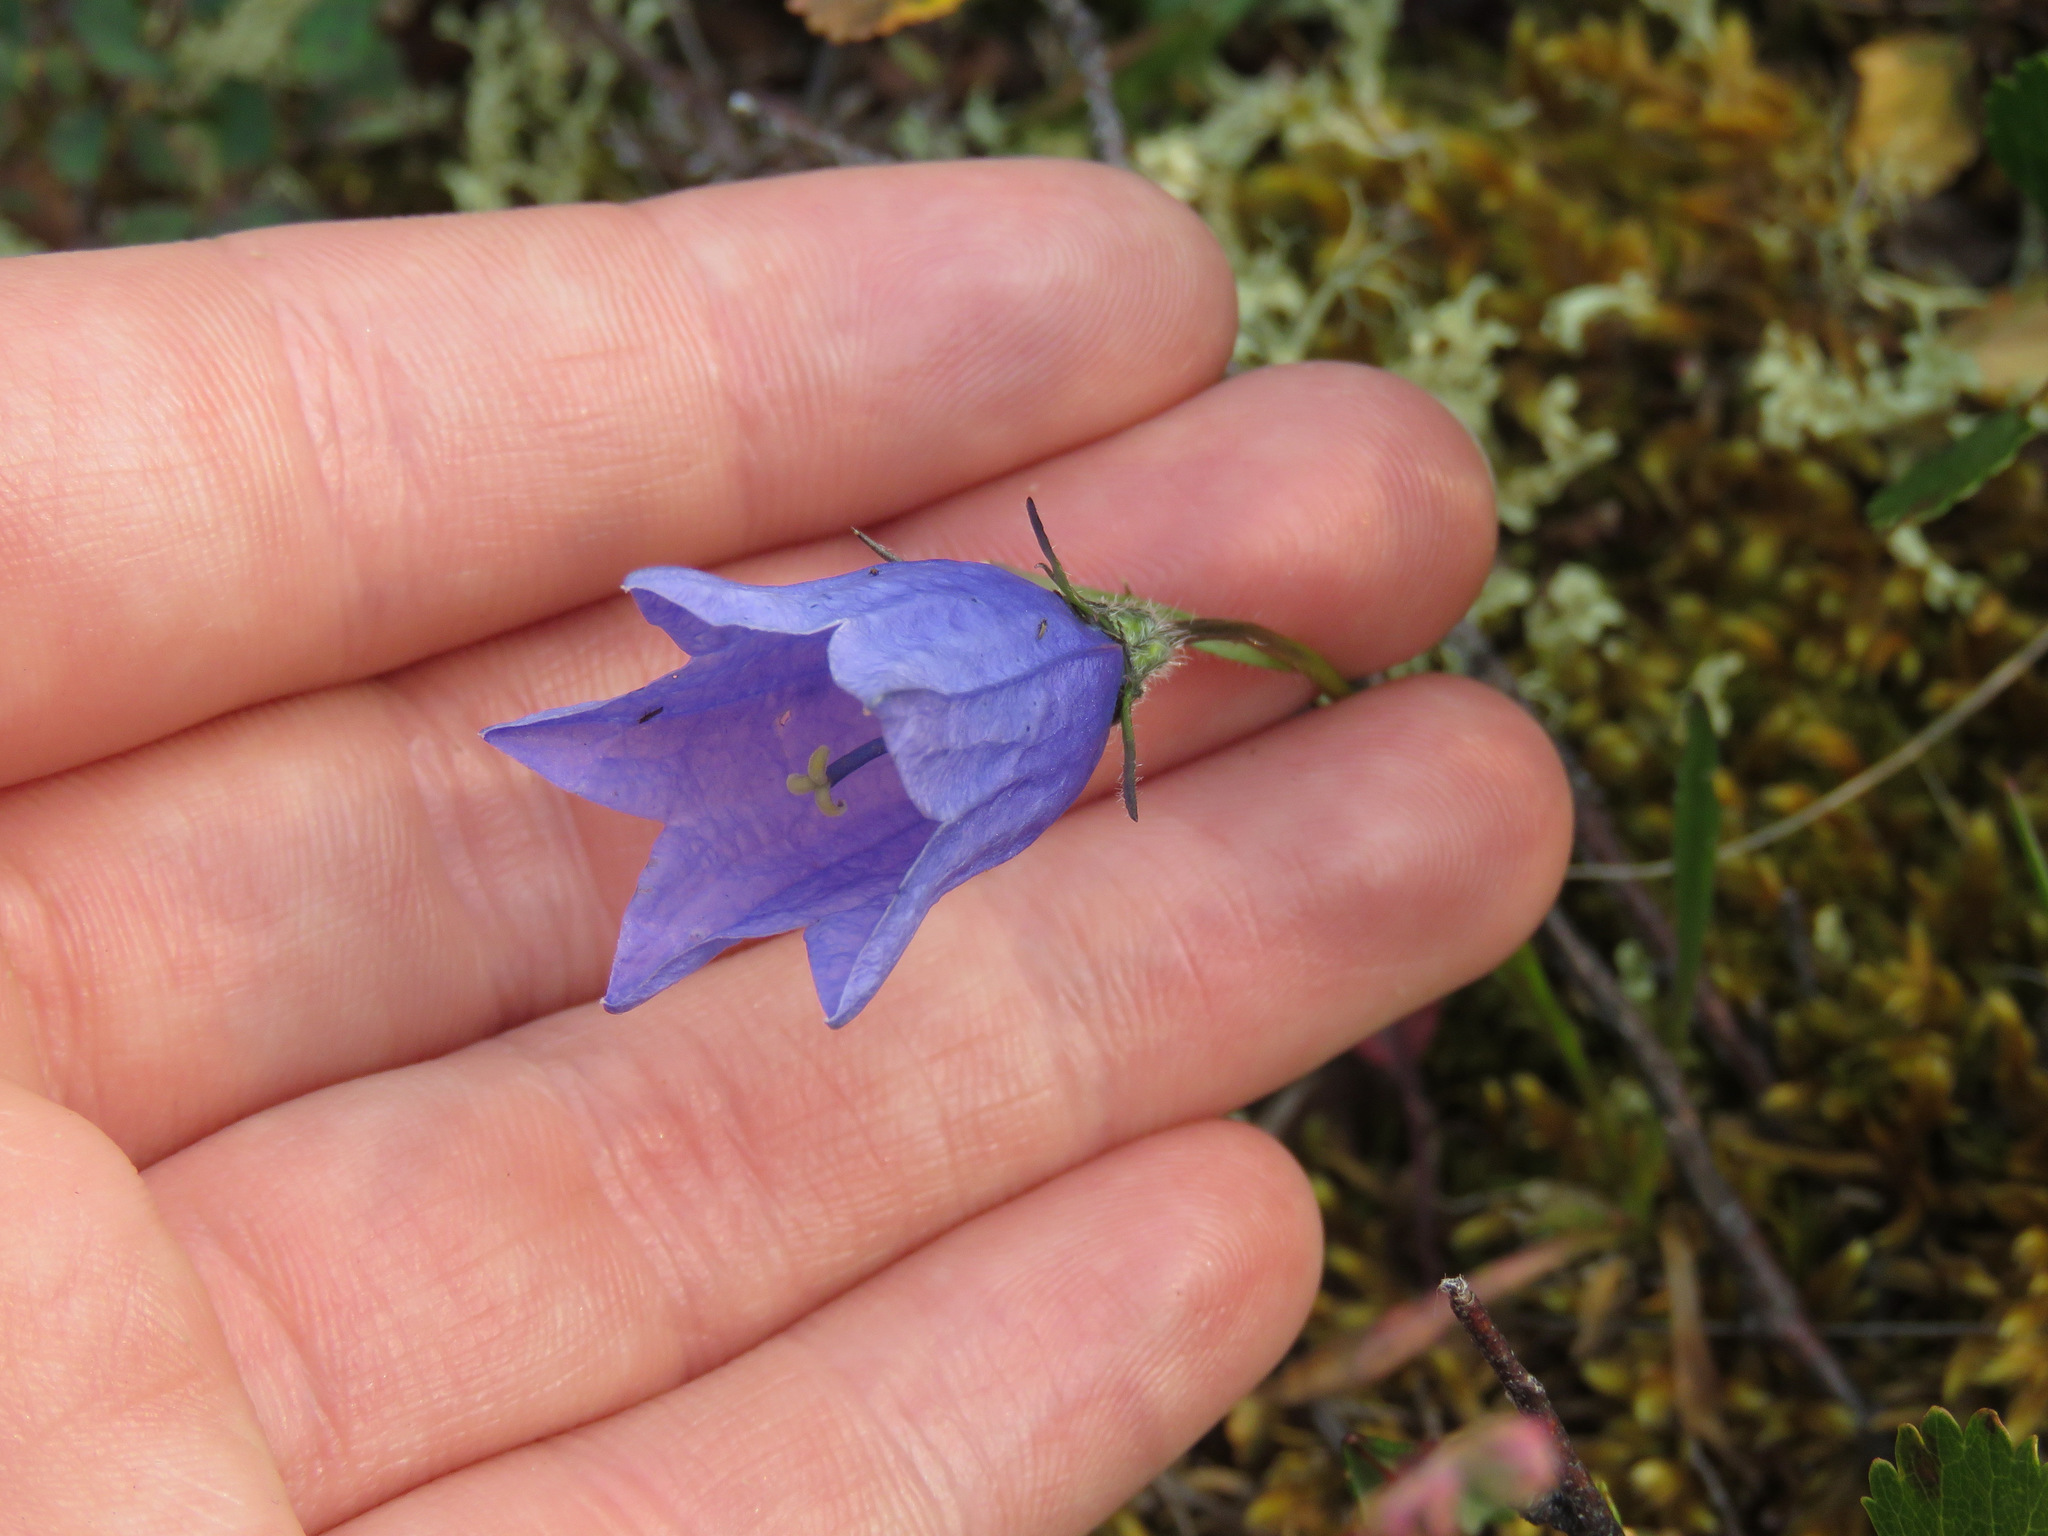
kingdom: Plantae
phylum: Tracheophyta
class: Magnoliopsida
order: Asterales
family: Campanulaceae
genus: Campanula
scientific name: Campanula lasiocarpa
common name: Mountain harebell
